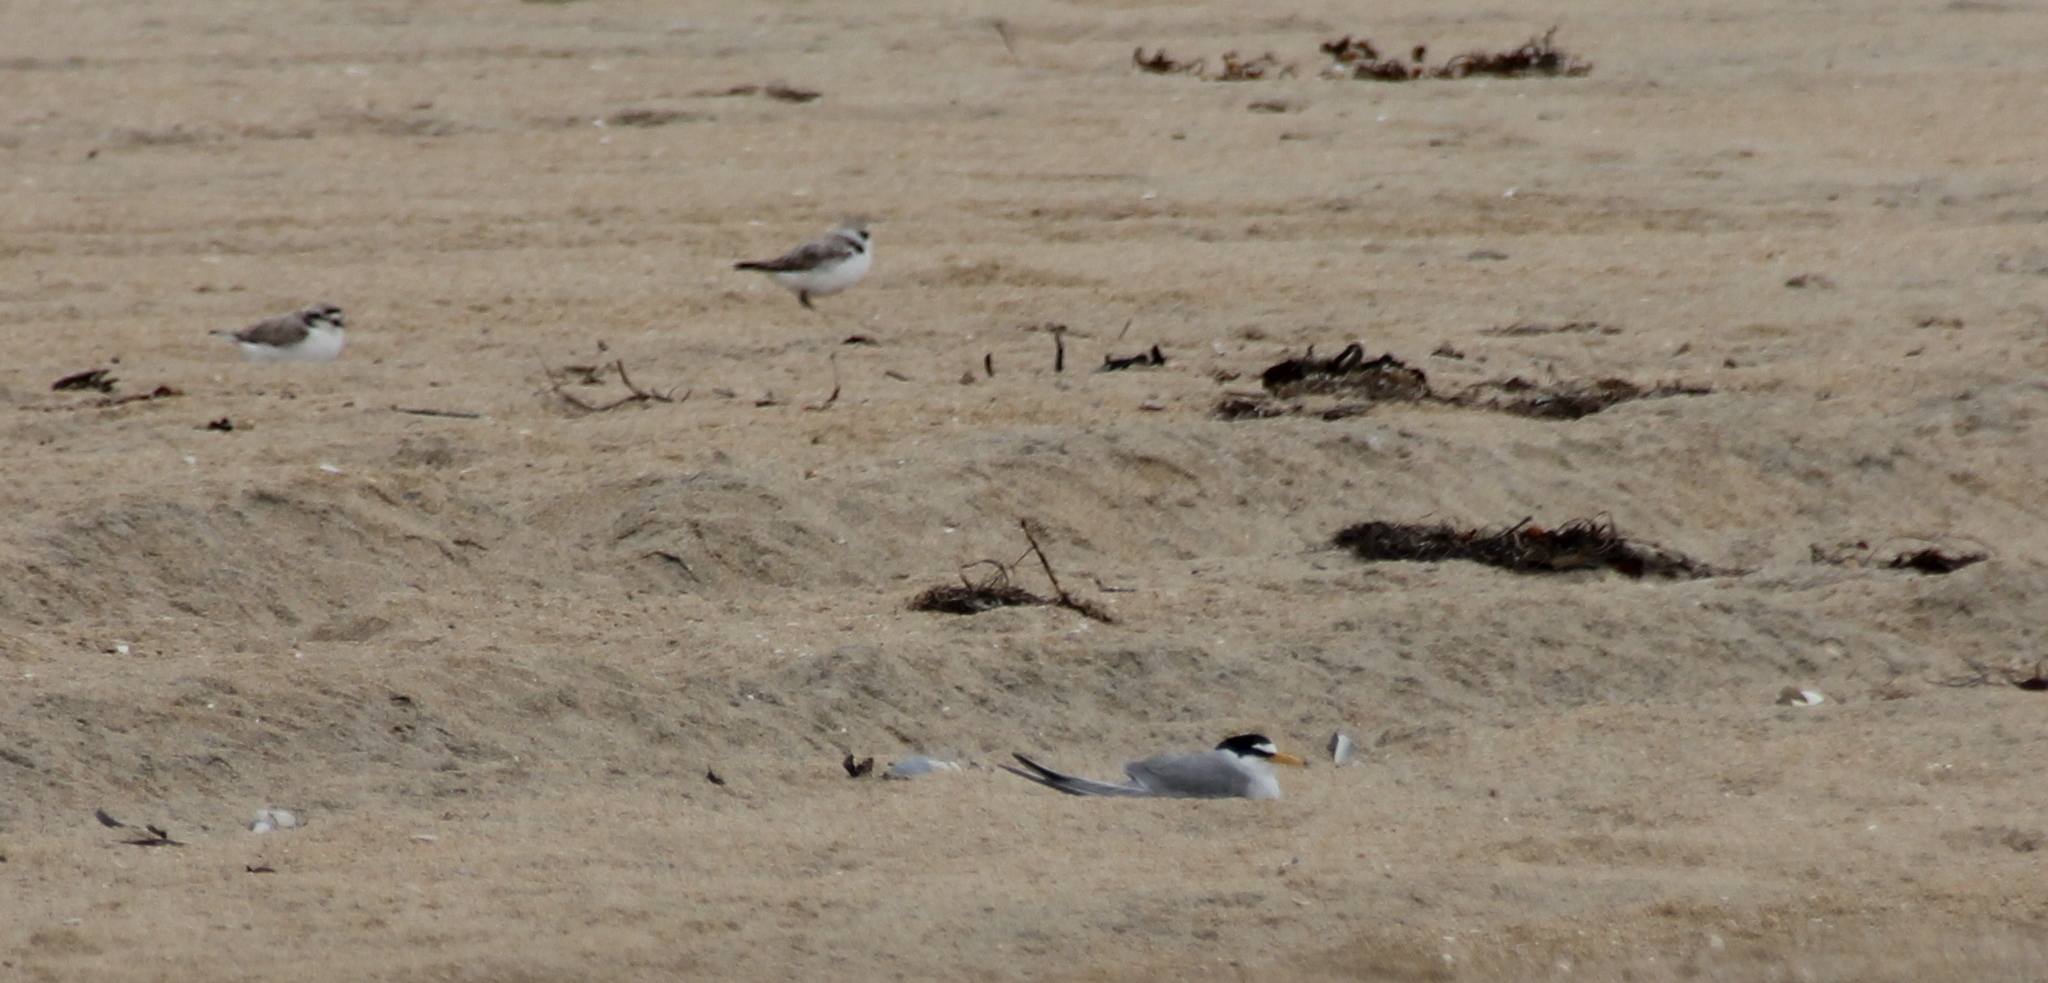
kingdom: Animalia
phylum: Chordata
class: Aves
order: Charadriiformes
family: Laridae
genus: Sternula
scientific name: Sternula antillarum
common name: Least tern
